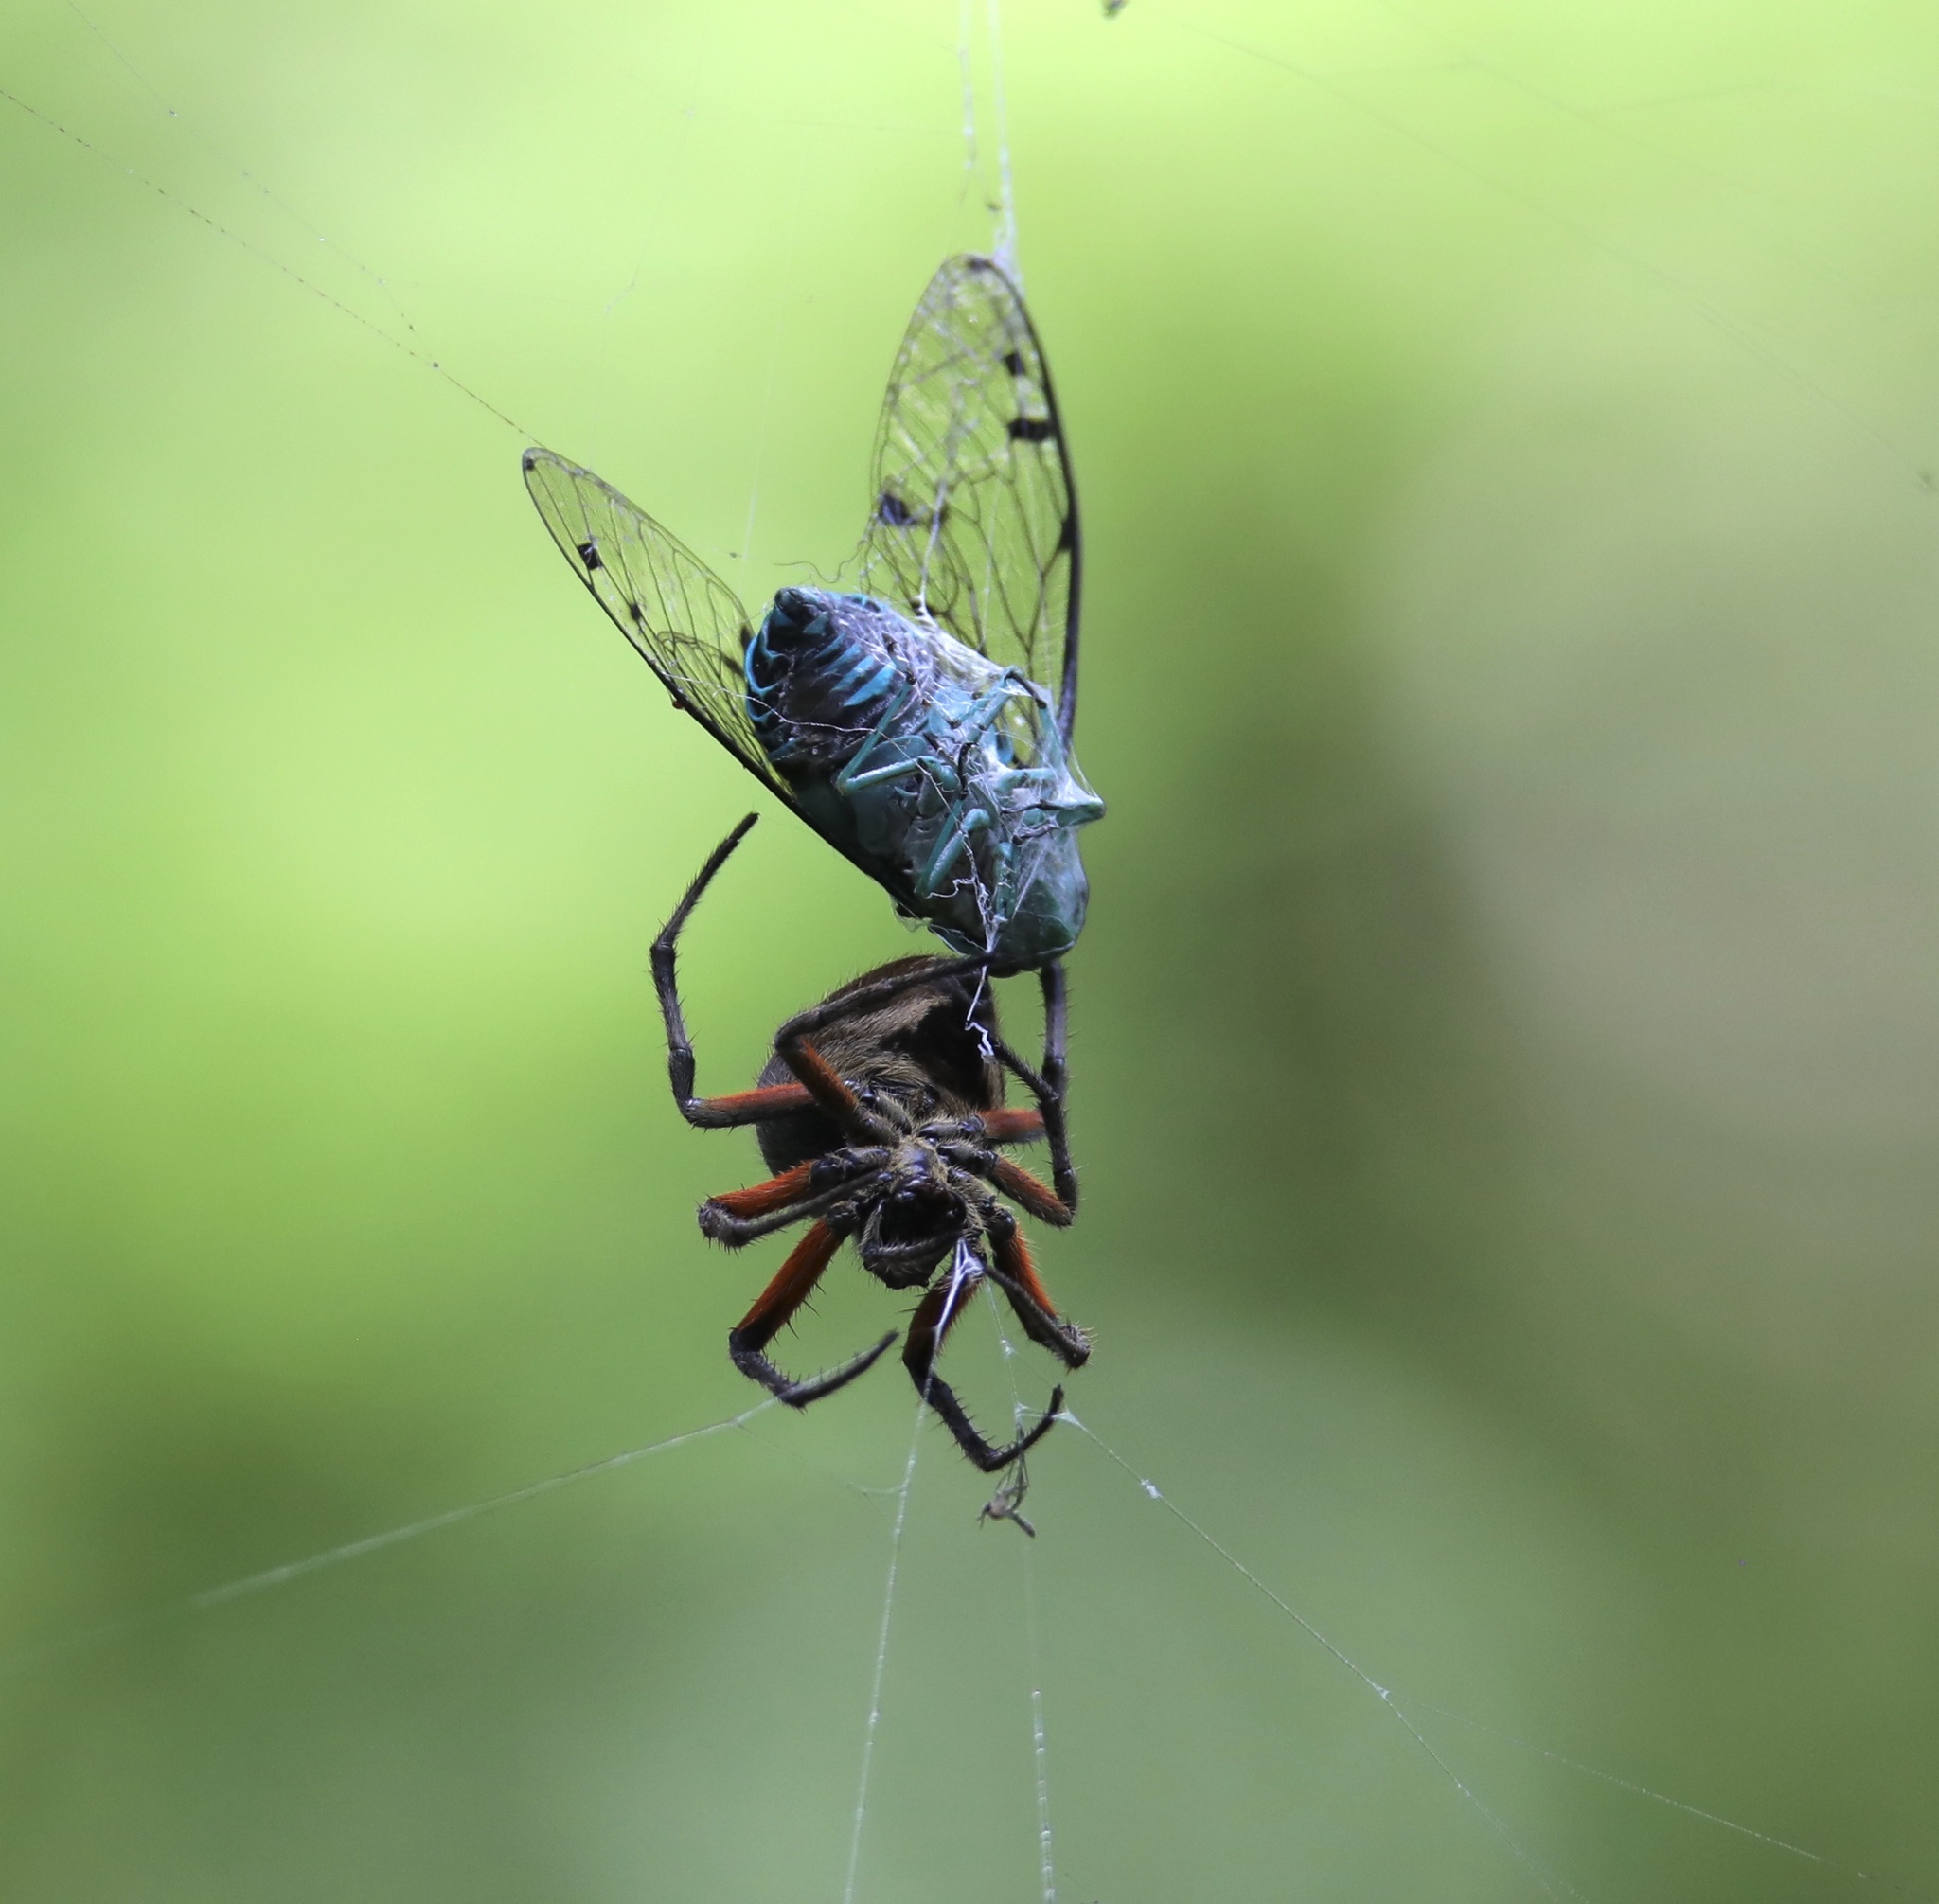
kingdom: Animalia
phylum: Arthropoda
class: Arachnida
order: Araneae
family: Araneidae
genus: Eriophora
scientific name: Eriophora fuliginea
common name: Orb weavers
